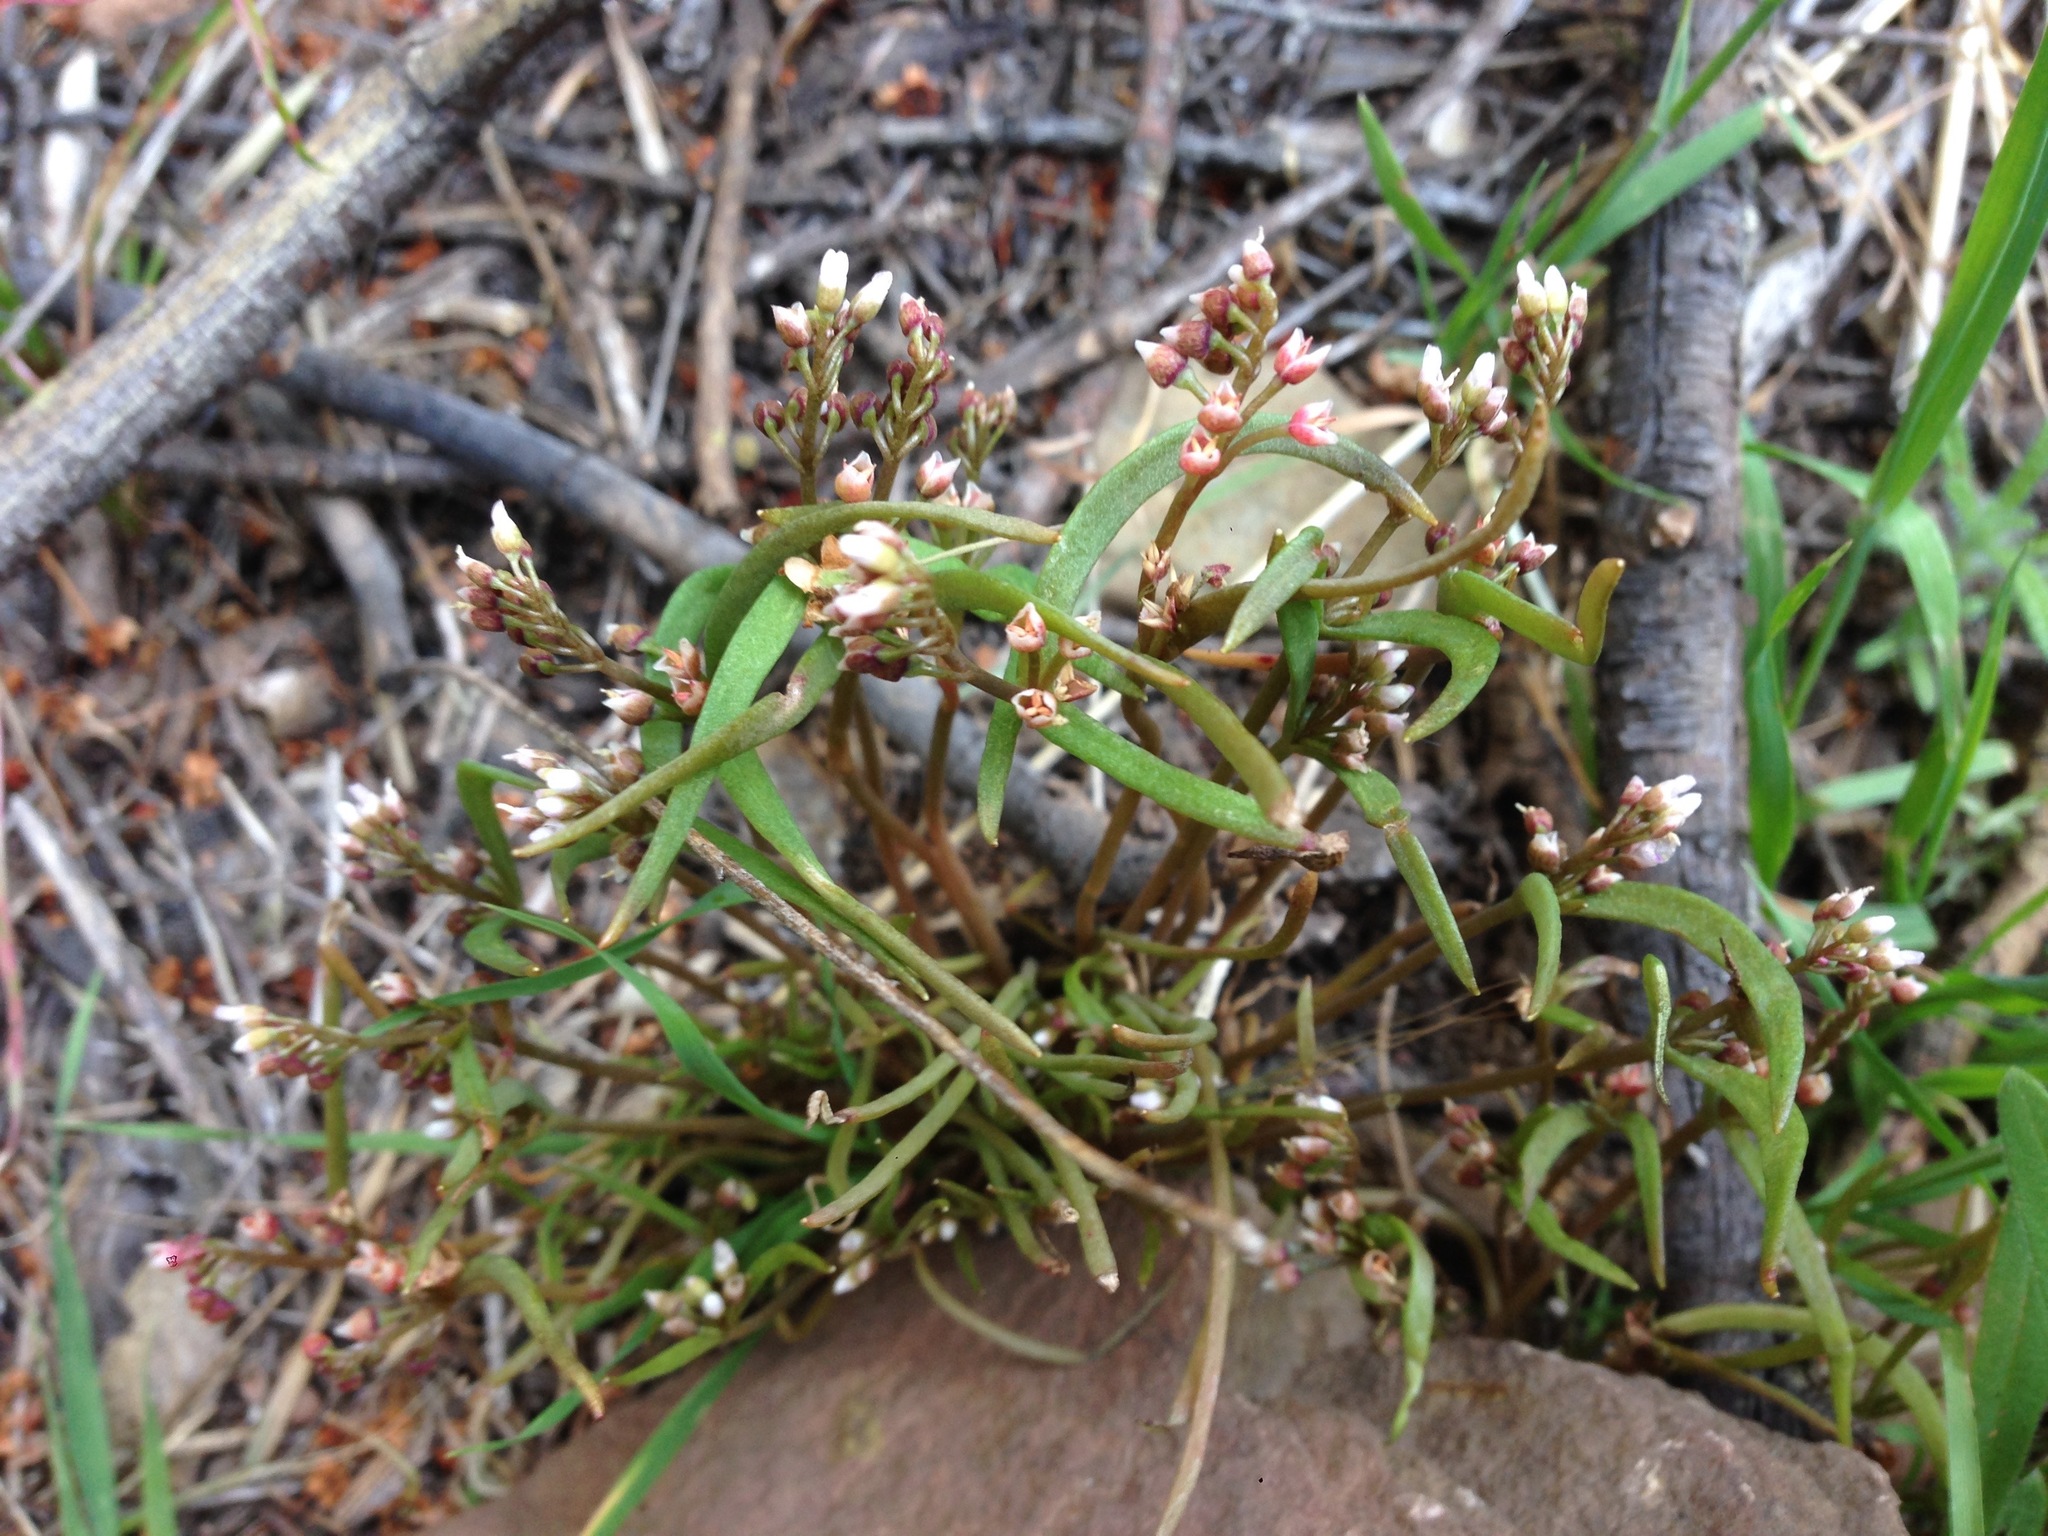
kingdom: Plantae
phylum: Tracheophyta
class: Magnoliopsida
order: Caryophyllales
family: Montiaceae
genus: Claytonia
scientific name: Claytonia parviflora
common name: Indian-lettuce
